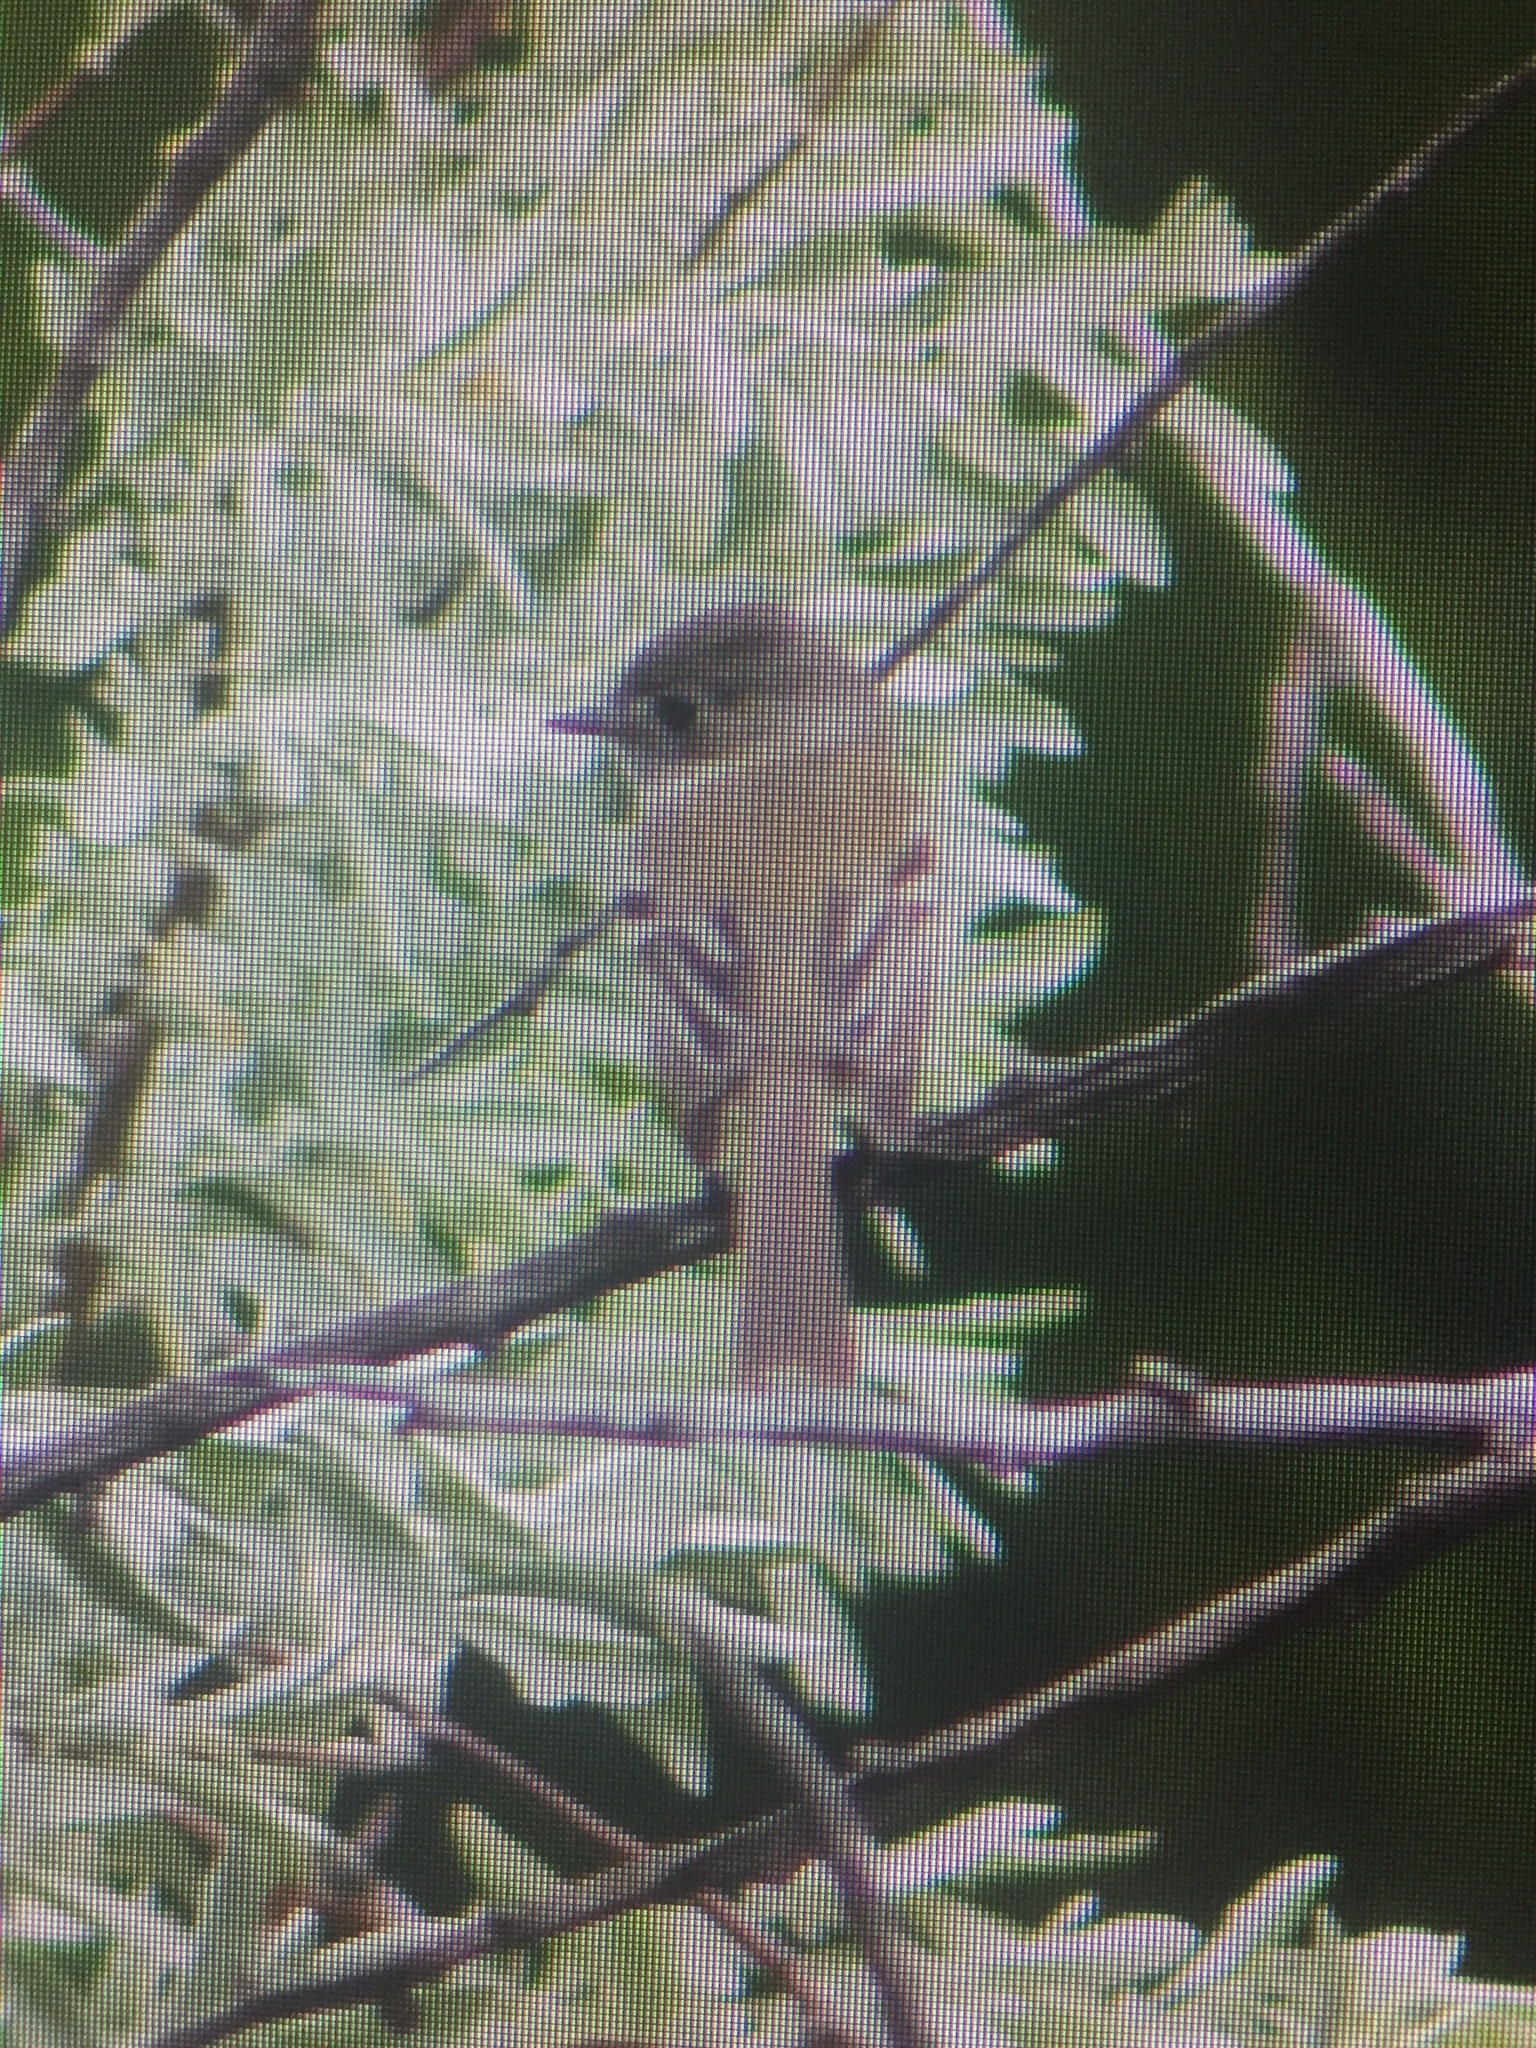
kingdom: Animalia
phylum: Chordata
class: Aves
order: Passeriformes
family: Tyrannidae
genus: Empidonax
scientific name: Empidonax oberholseri
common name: Dusky flycatcher
